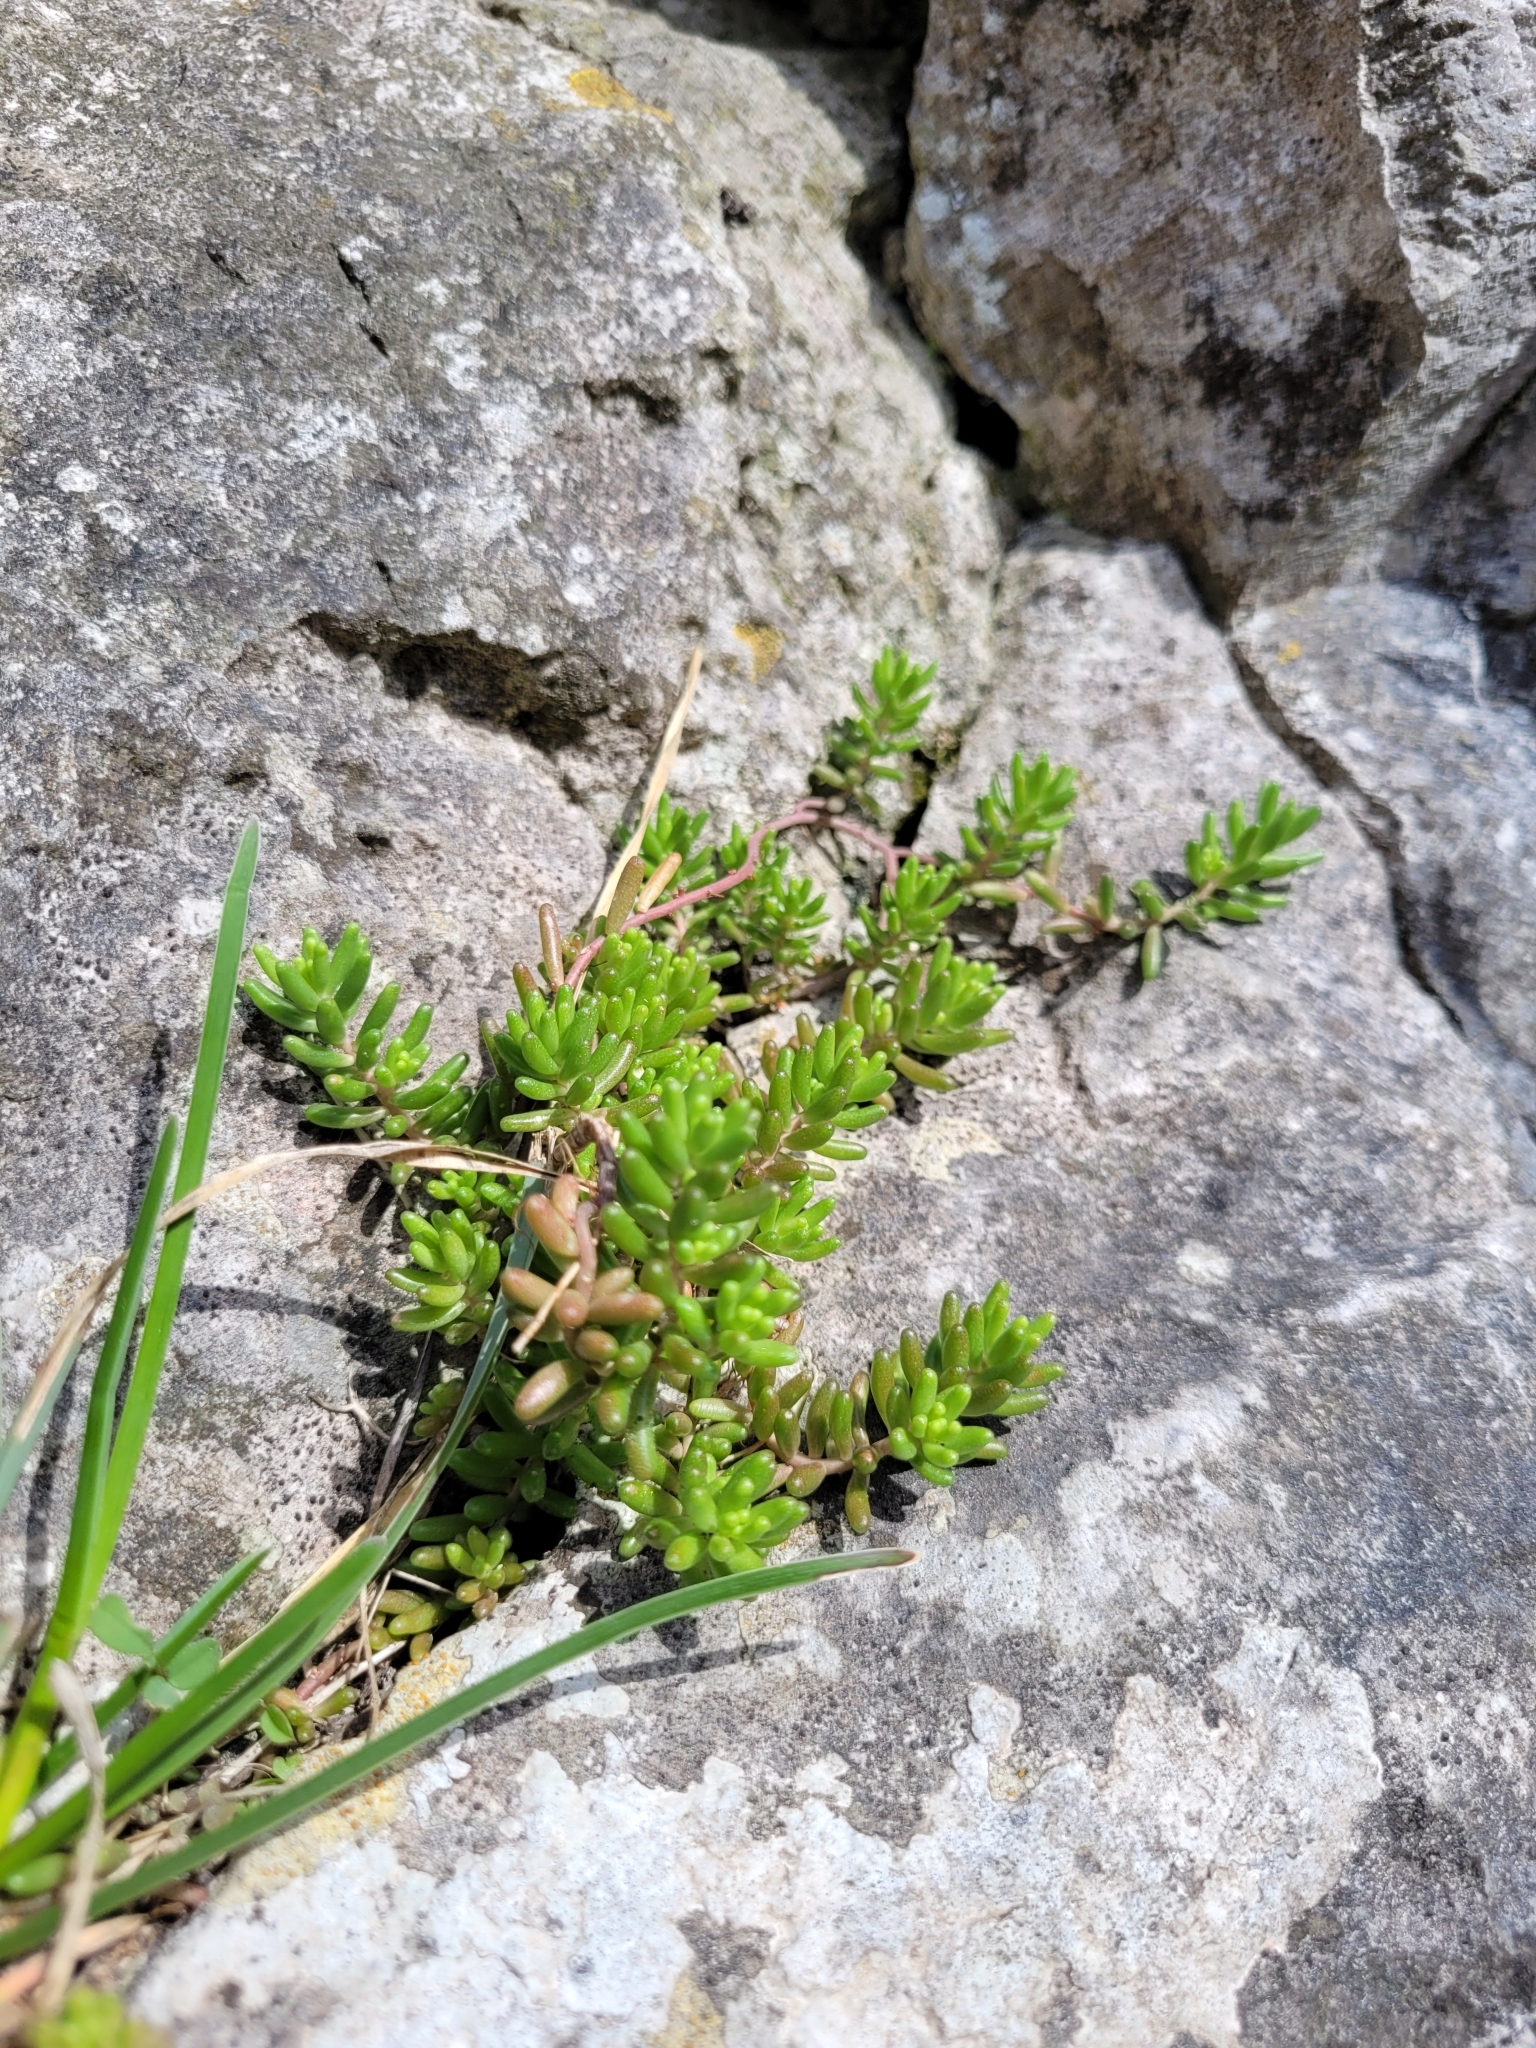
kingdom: Plantae
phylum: Tracheophyta
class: Magnoliopsida
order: Saxifragales
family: Crassulaceae
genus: Sedum
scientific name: Sedum album
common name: White stonecrop
